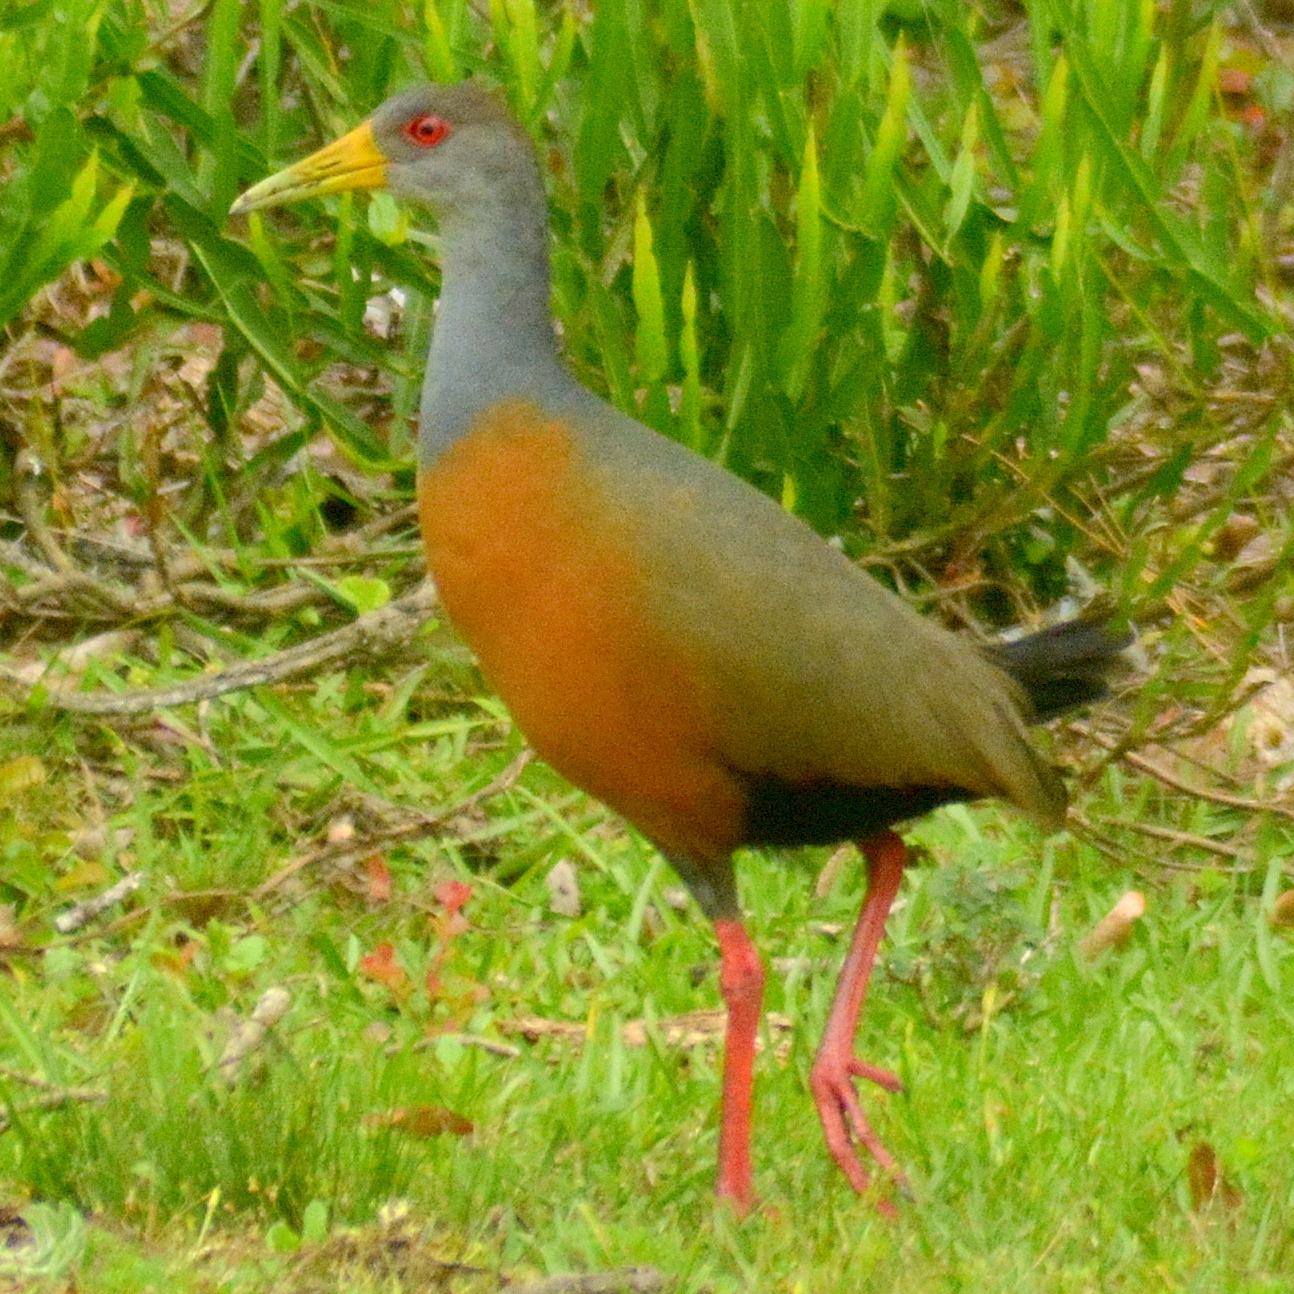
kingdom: Animalia
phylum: Chordata
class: Aves
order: Gruiformes
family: Rallidae
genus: Aramides
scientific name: Aramides cajanea
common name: Gray-necked wood-rail
